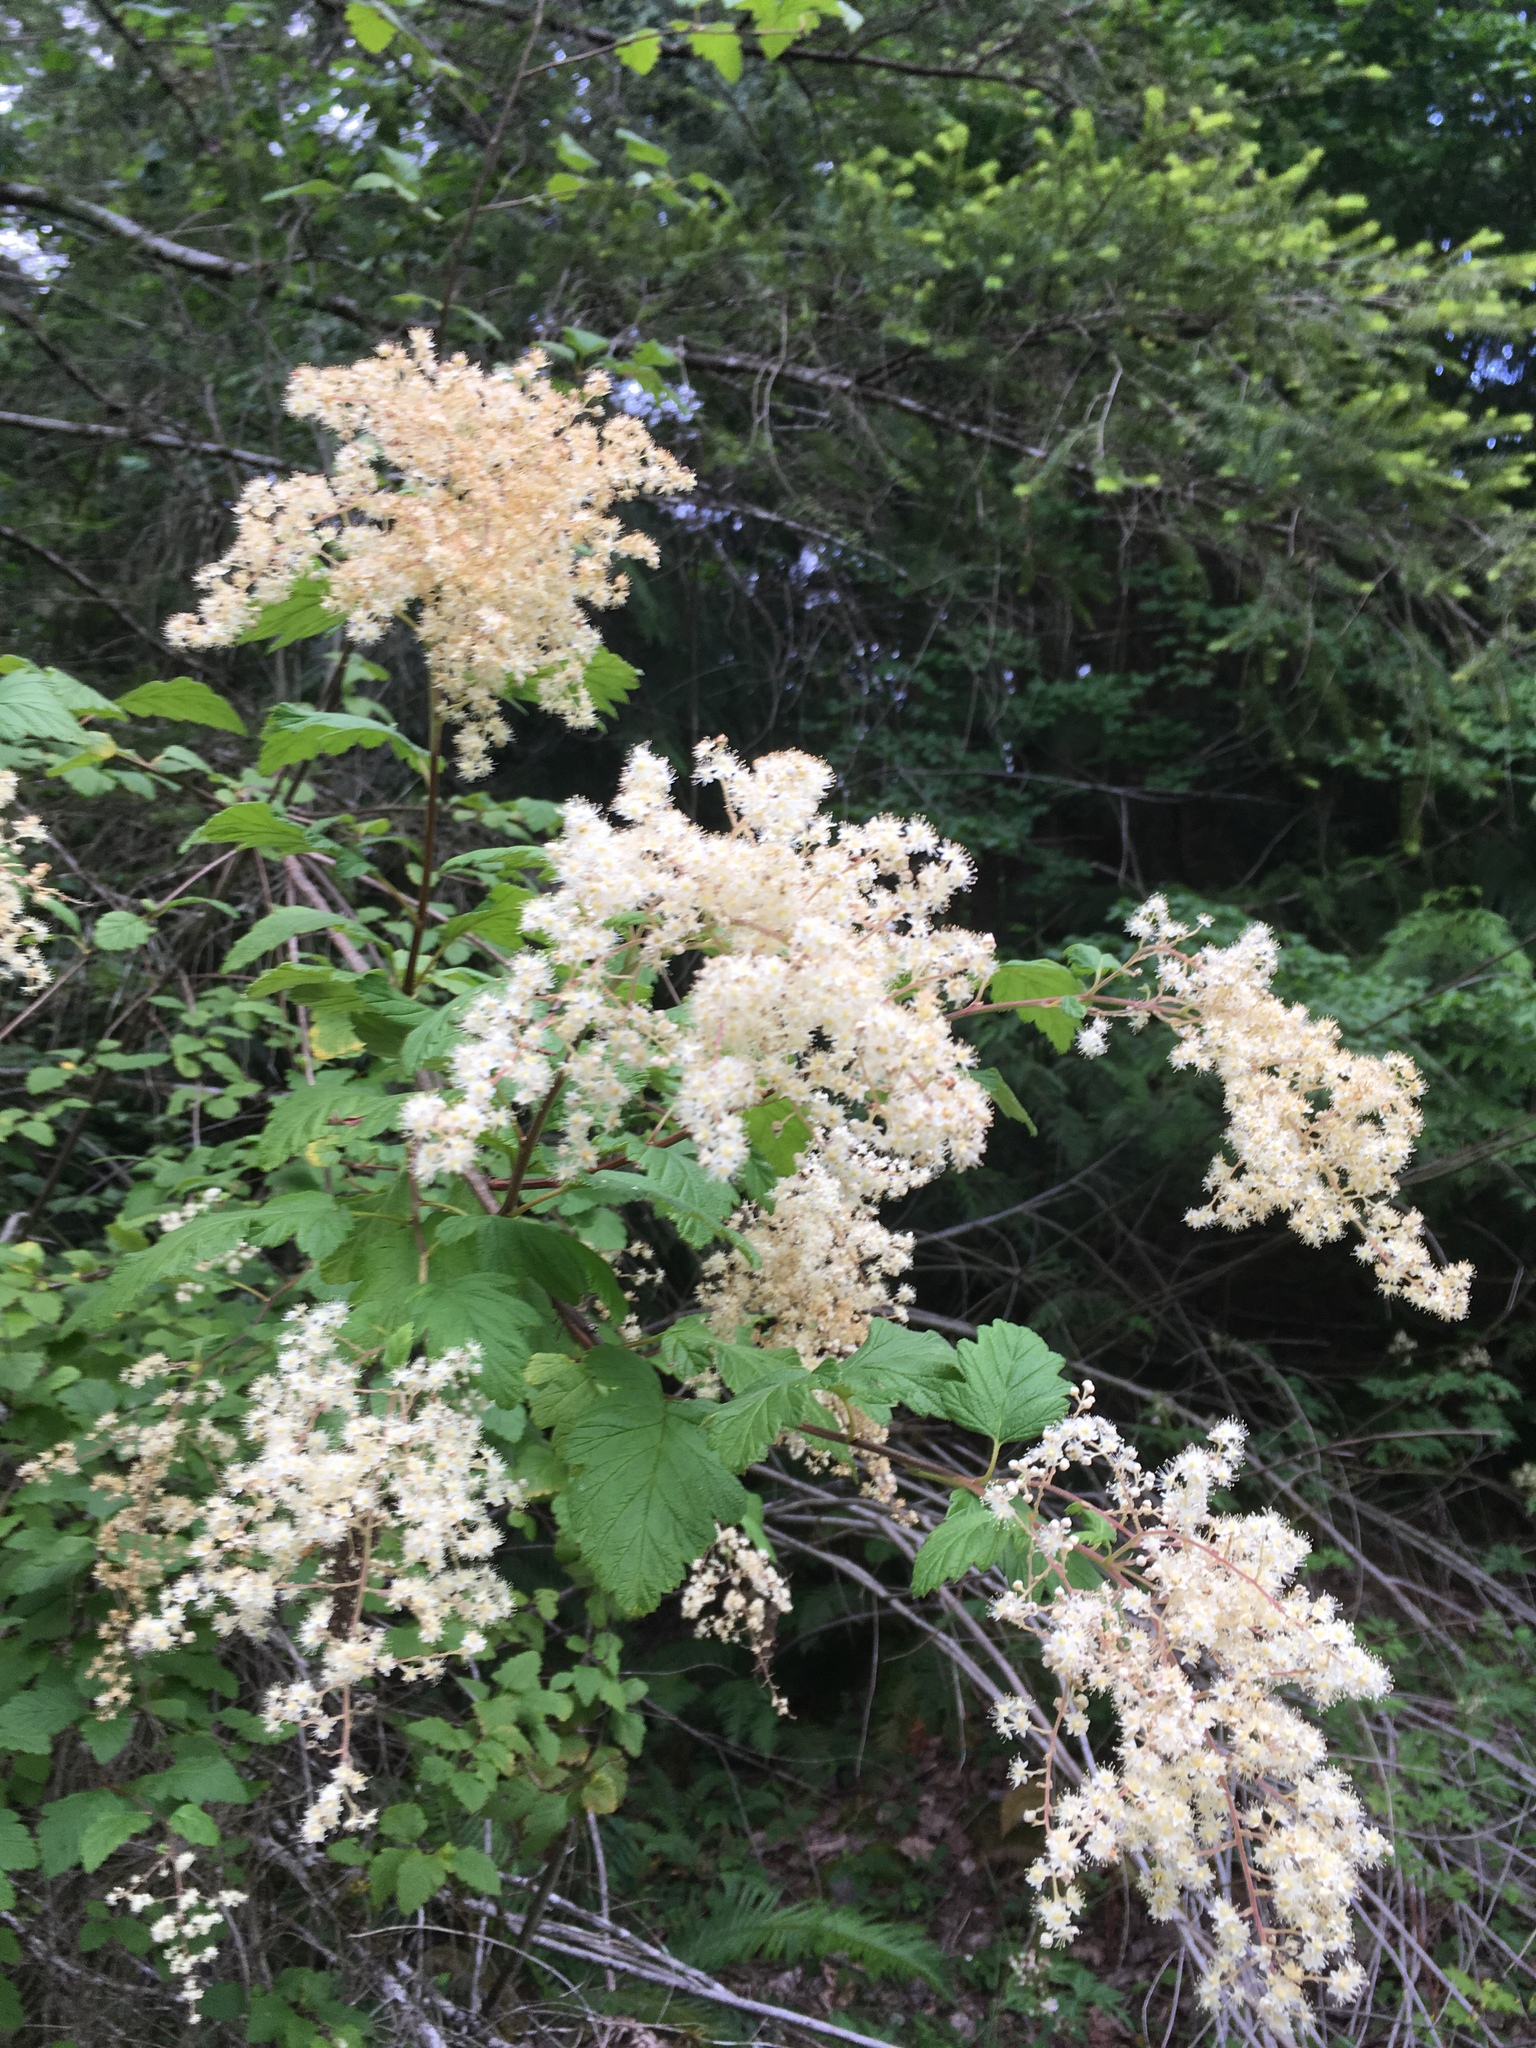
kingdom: Plantae
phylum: Tracheophyta
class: Magnoliopsida
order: Rosales
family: Rosaceae
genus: Holodiscus
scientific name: Holodiscus discolor
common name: Oceanspray
